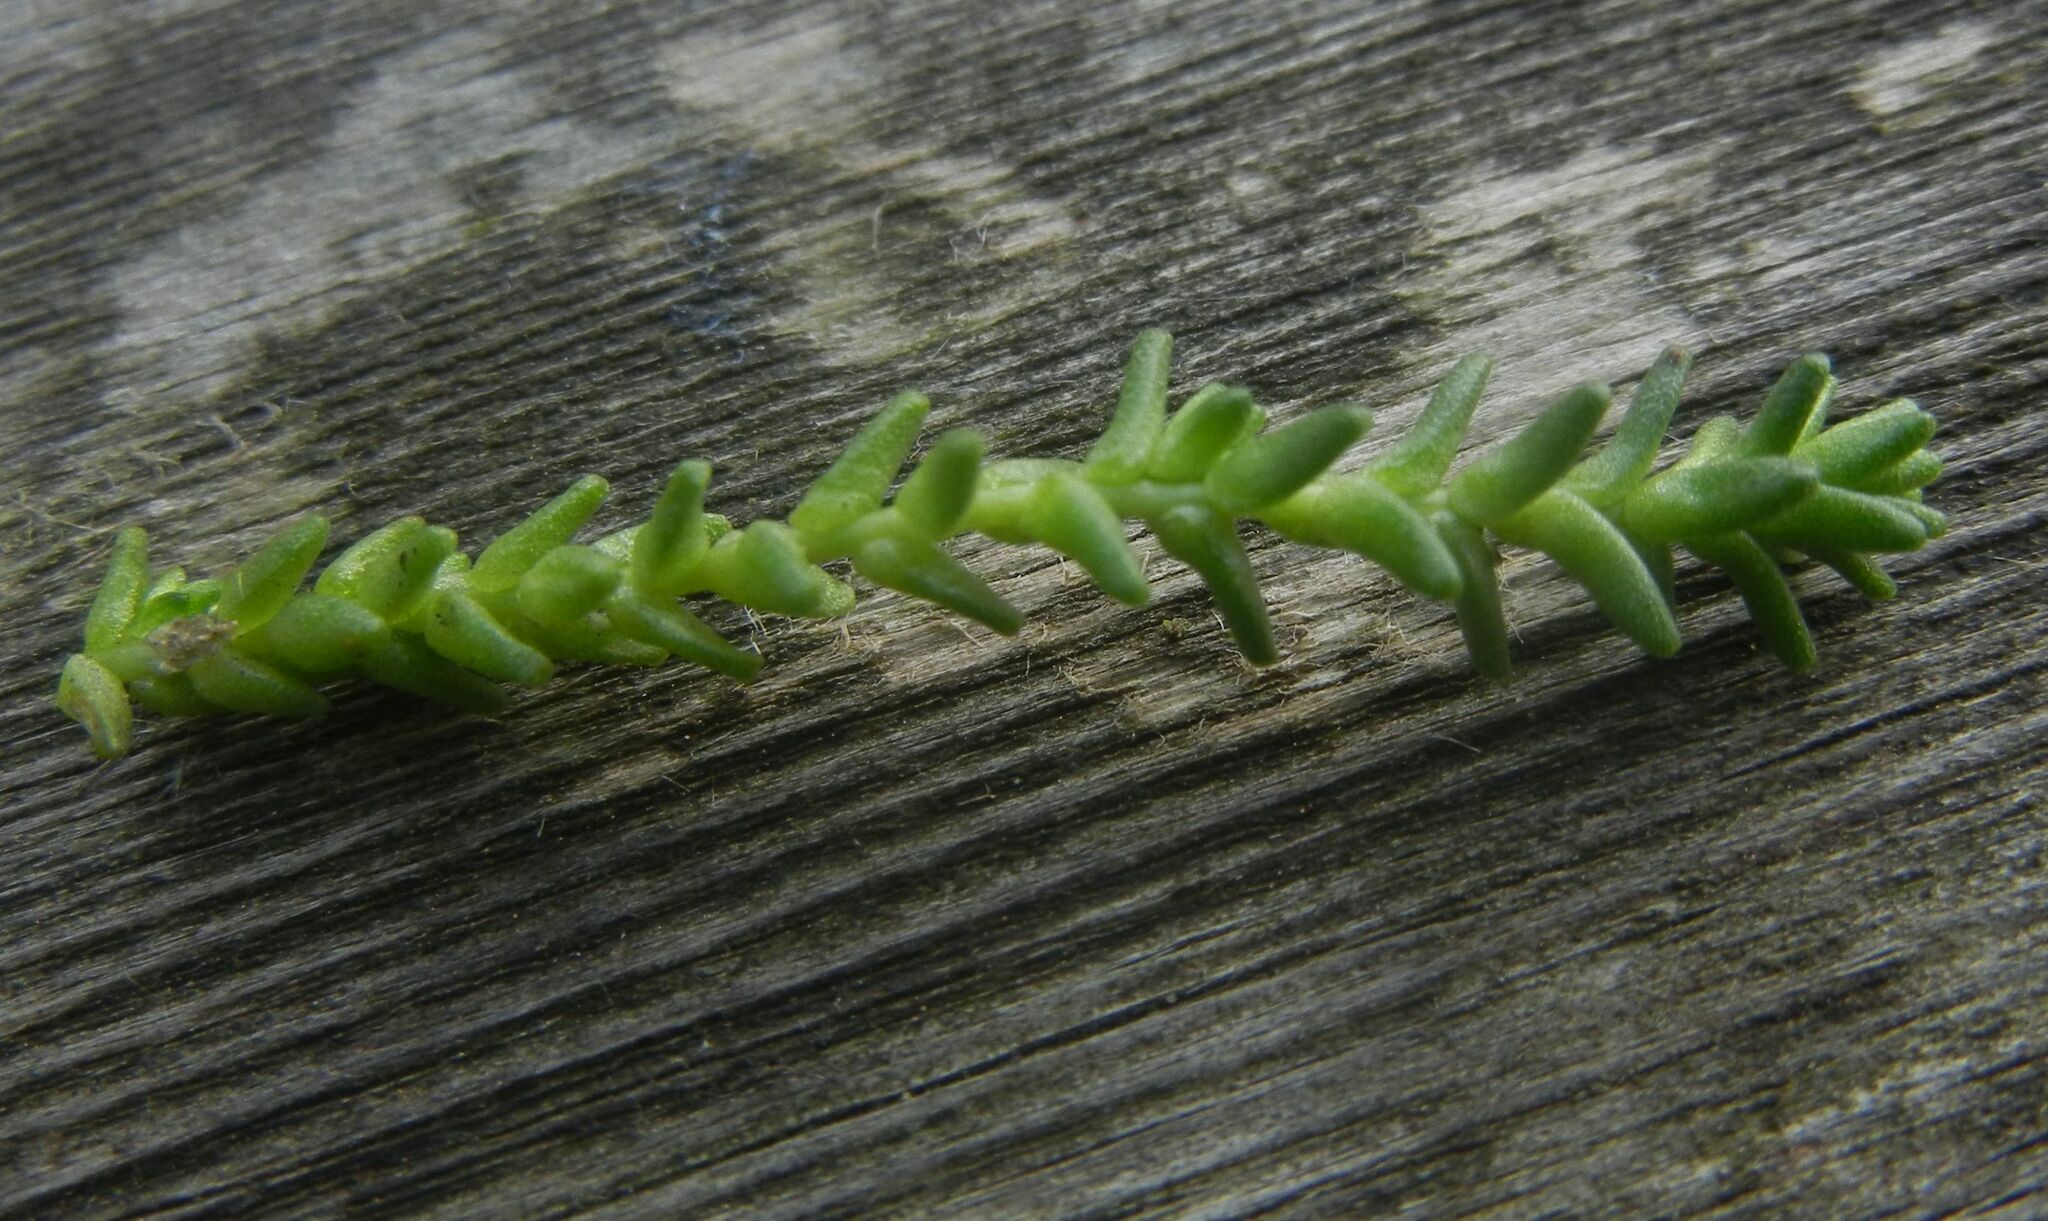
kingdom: Plantae
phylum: Tracheophyta
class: Magnoliopsida
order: Saxifragales
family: Crassulaceae
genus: Sedum
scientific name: Sedum acre
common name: Biting stonecrop
